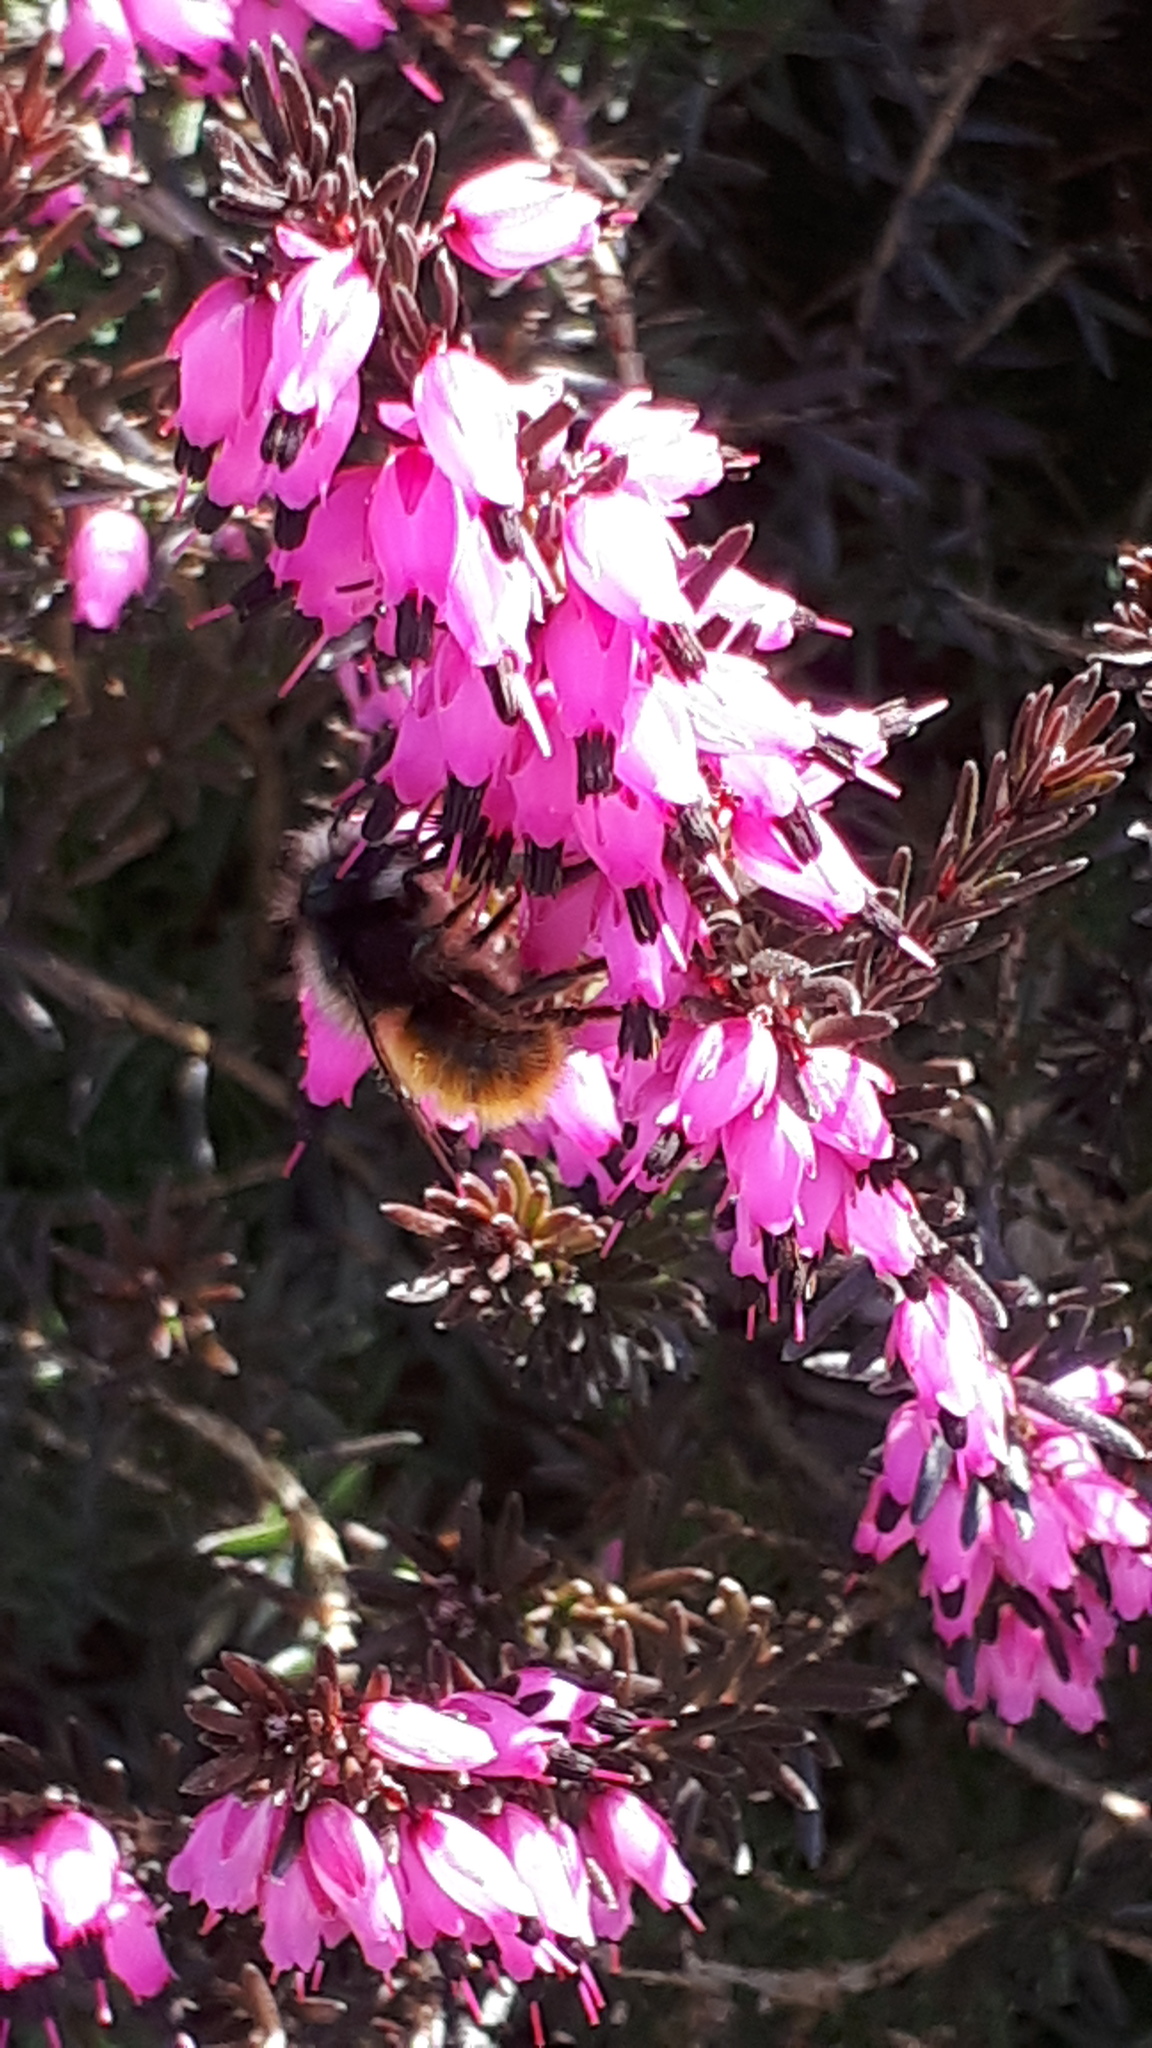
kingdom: Animalia
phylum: Arthropoda
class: Insecta
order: Hymenoptera
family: Megachilidae
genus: Osmia
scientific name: Osmia cornuta
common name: Mason bee
